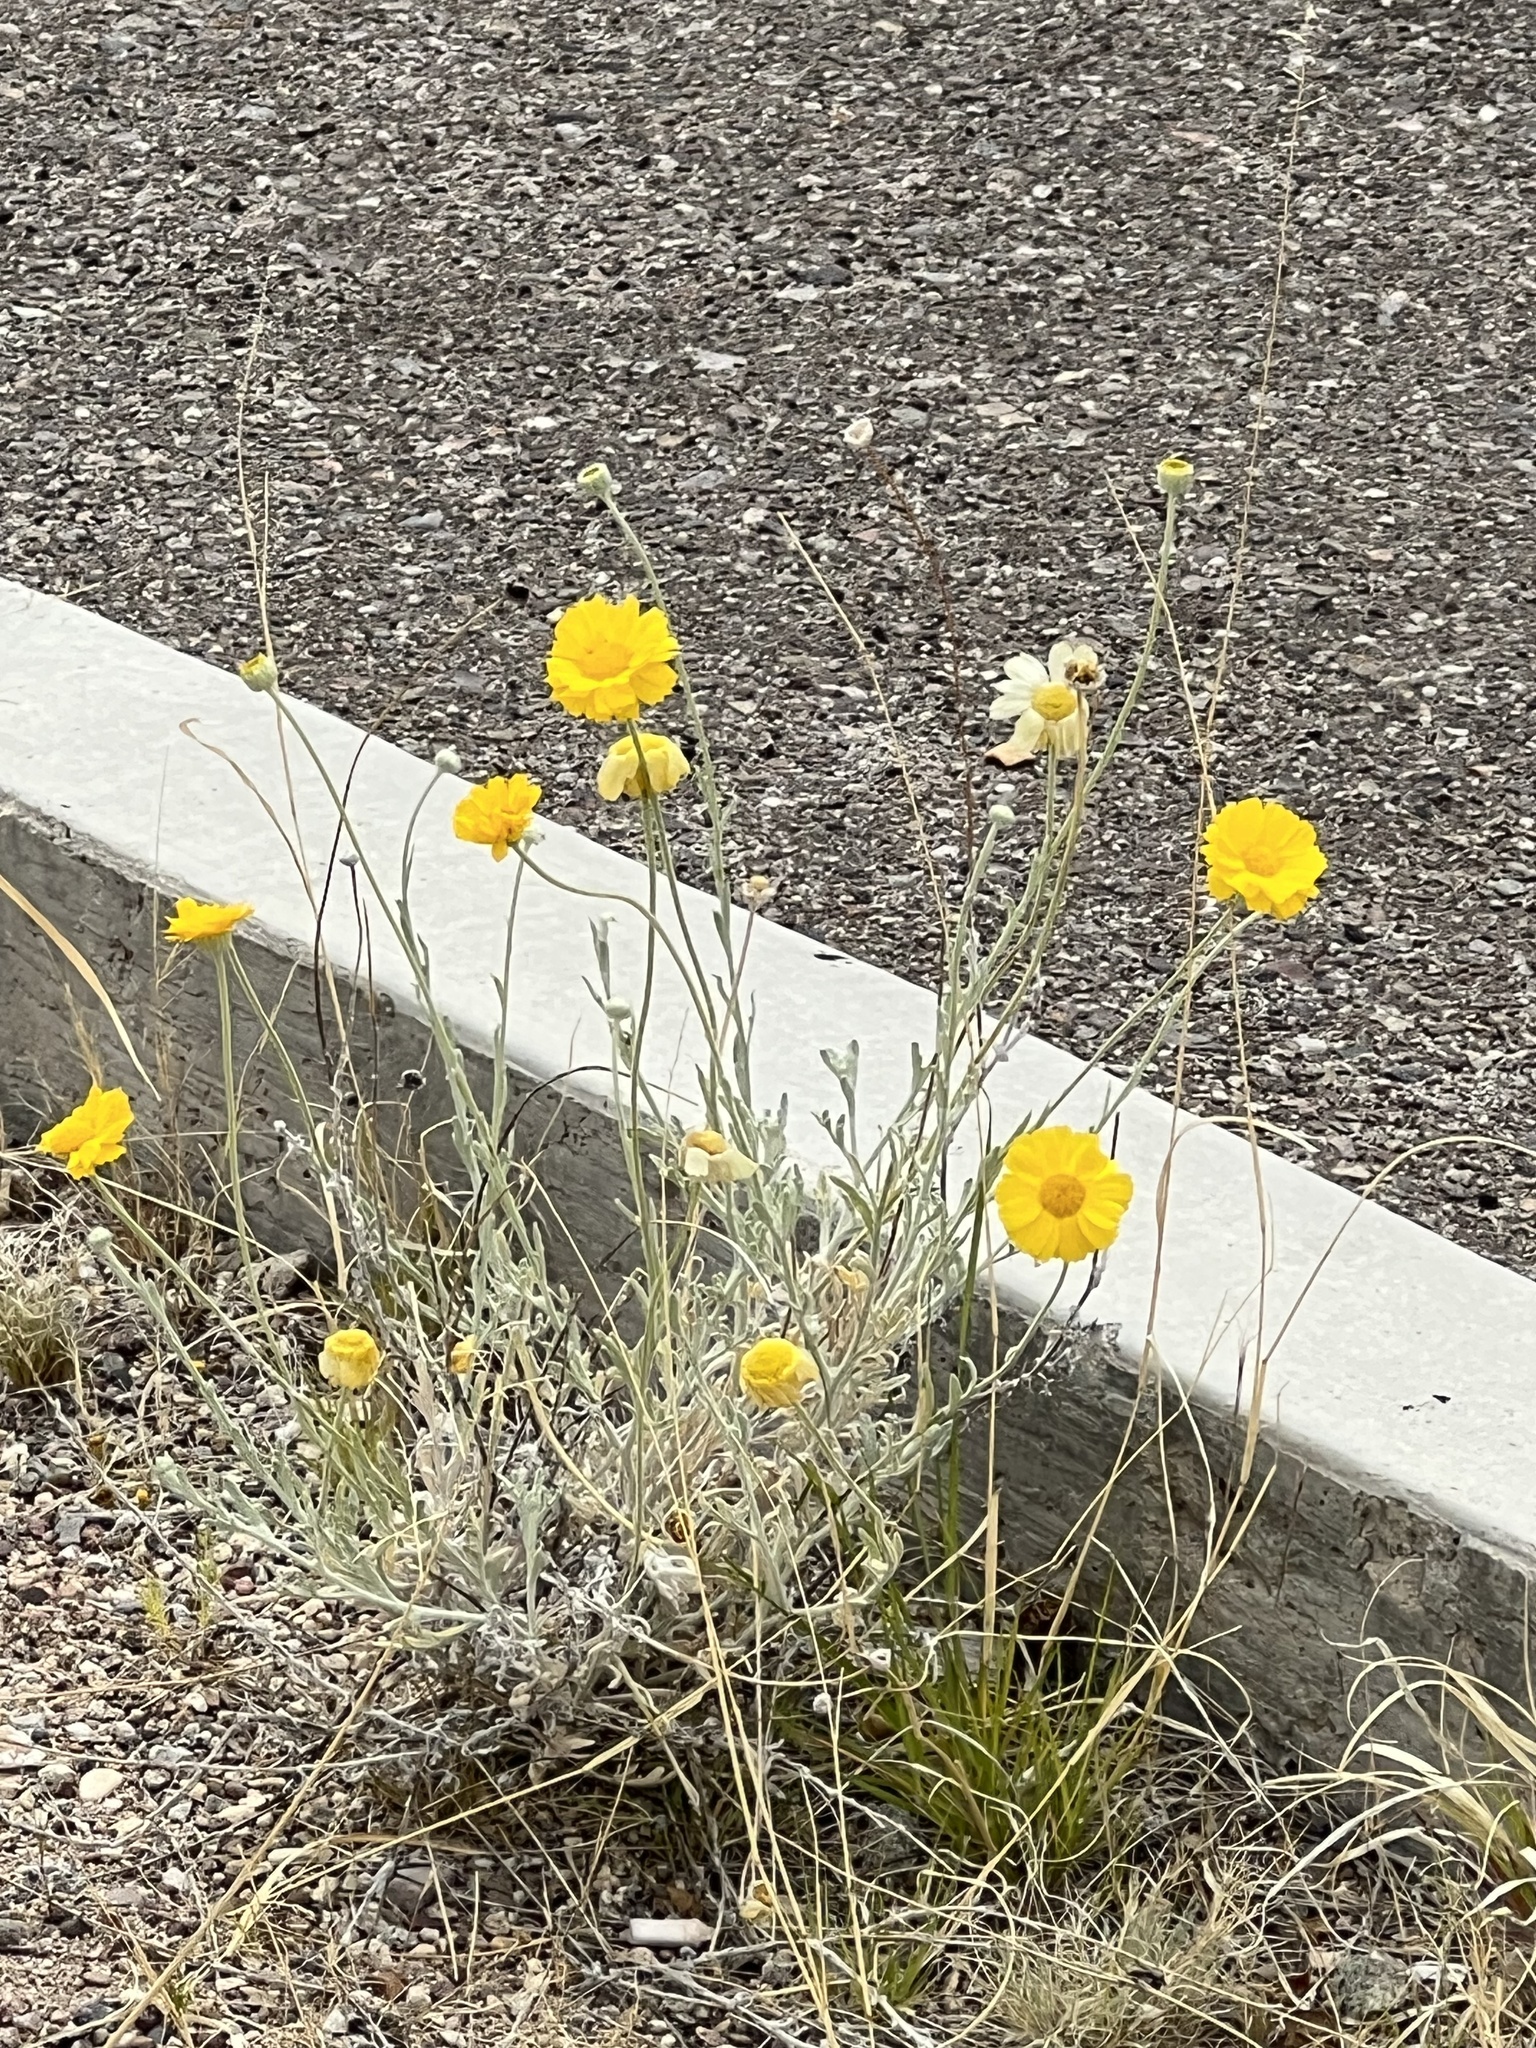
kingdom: Plantae
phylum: Tracheophyta
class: Magnoliopsida
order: Asterales
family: Asteraceae
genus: Baileya
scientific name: Baileya multiradiata
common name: Desert-marigold
